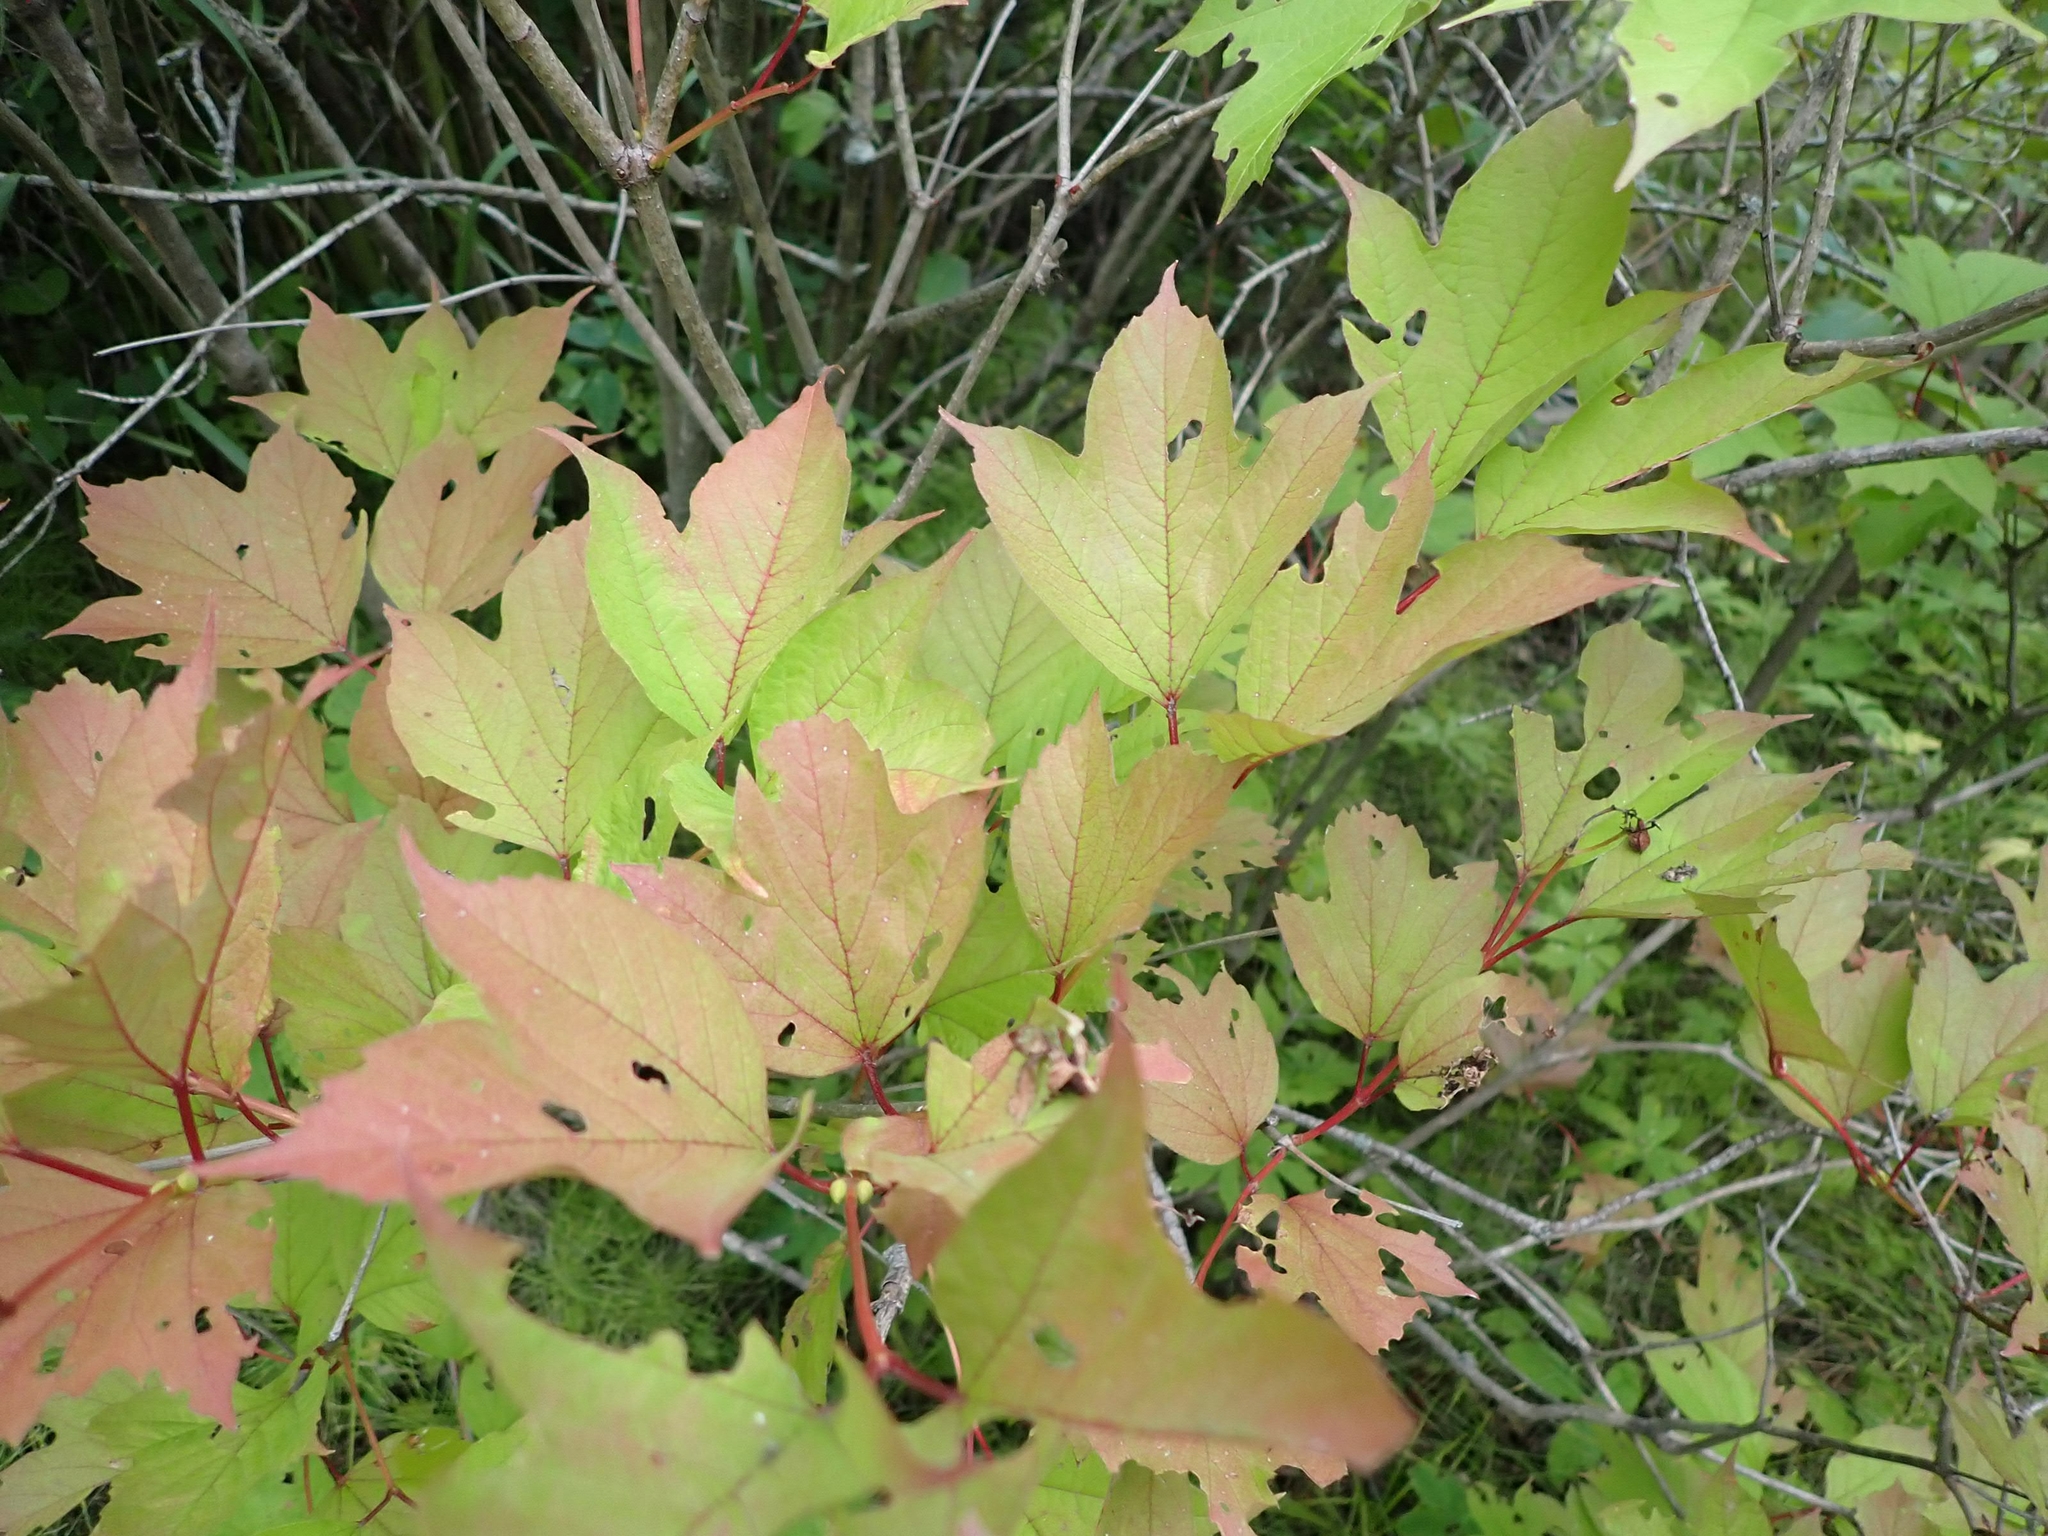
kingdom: Plantae
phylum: Tracheophyta
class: Magnoliopsida
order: Dipsacales
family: Viburnaceae
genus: Viburnum
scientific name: Viburnum trilobum
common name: American cranberrybush
